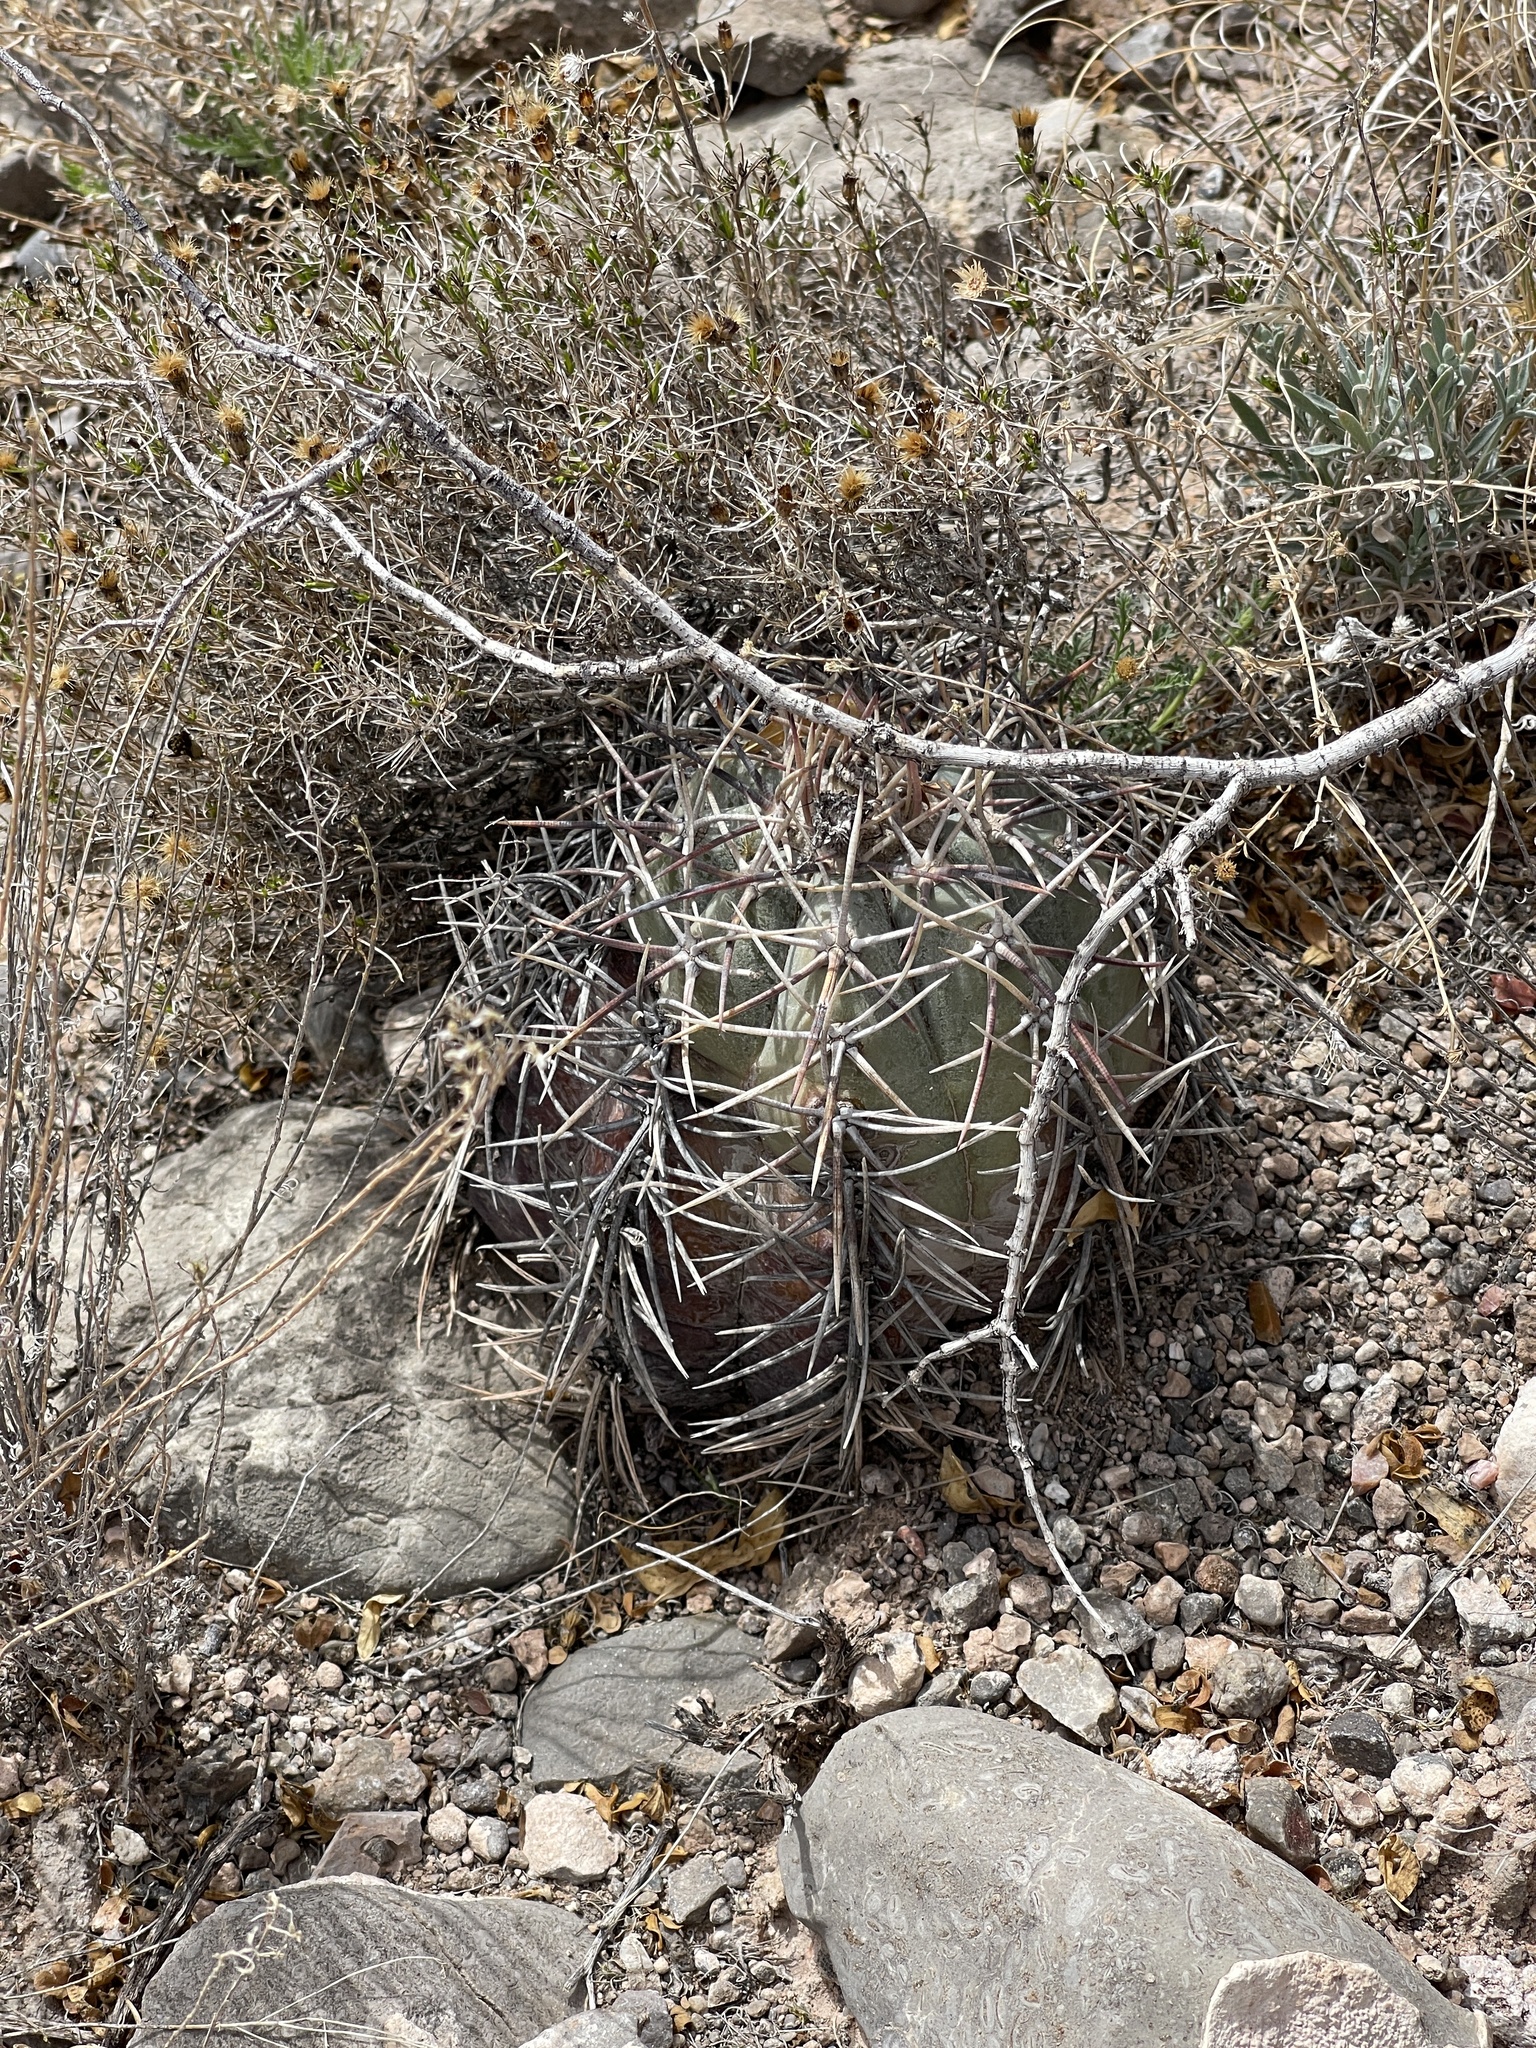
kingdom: Plantae
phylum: Tracheophyta
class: Magnoliopsida
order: Caryophyllales
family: Cactaceae
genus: Echinocactus
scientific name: Echinocactus horizonthalonius
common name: Devilshead
